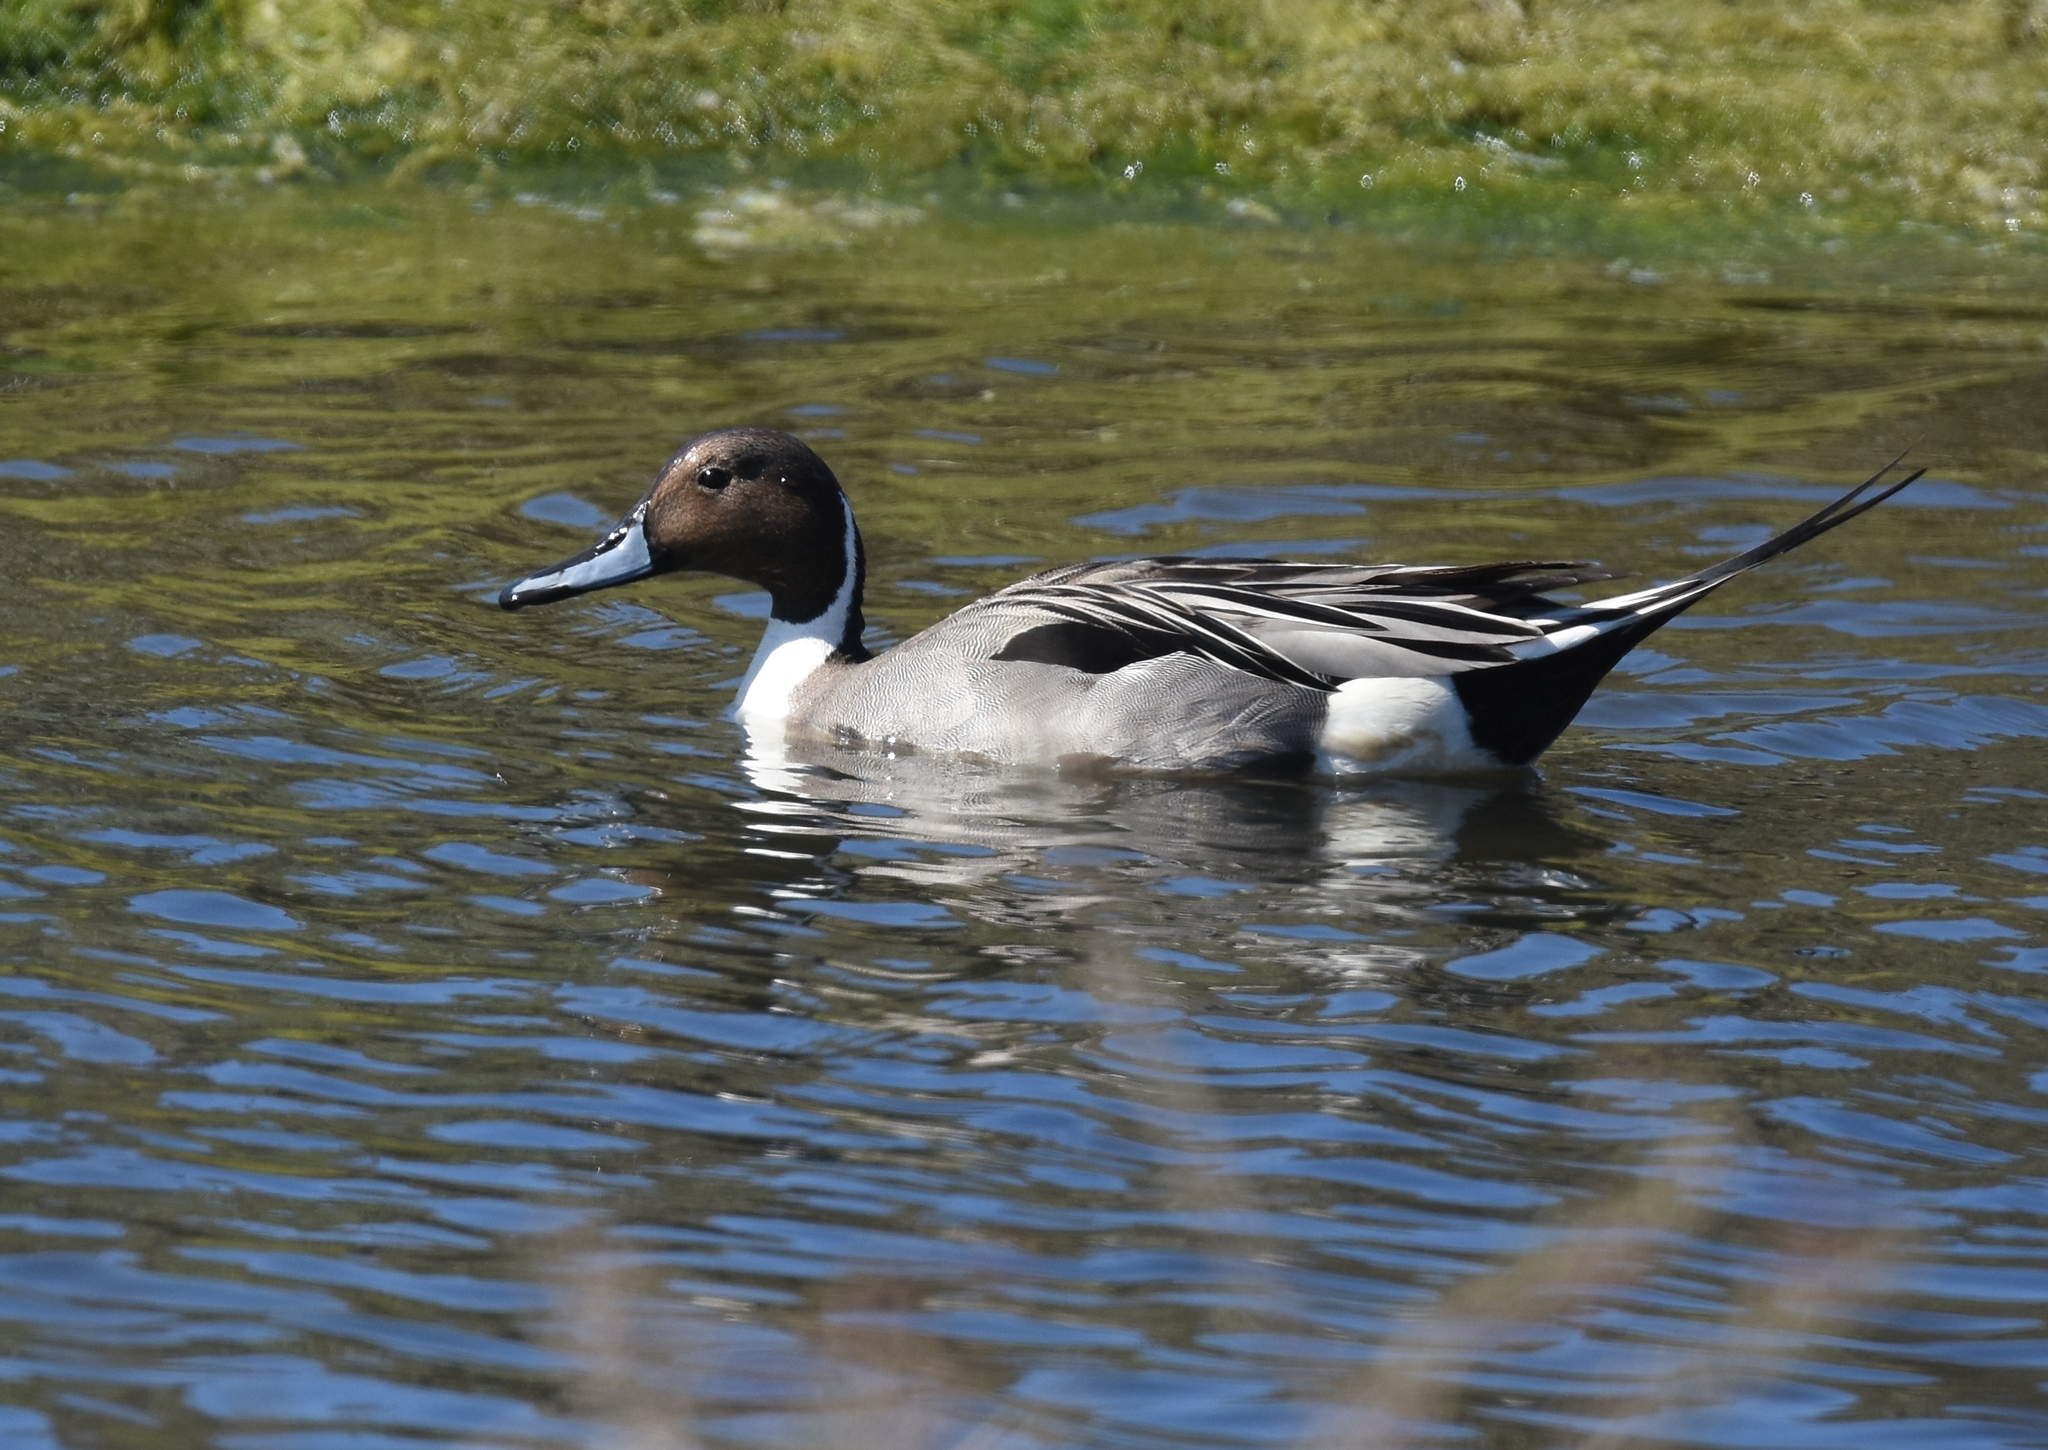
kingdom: Animalia
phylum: Chordata
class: Aves
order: Anseriformes
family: Anatidae
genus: Anas
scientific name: Anas acuta
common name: Northern pintail
